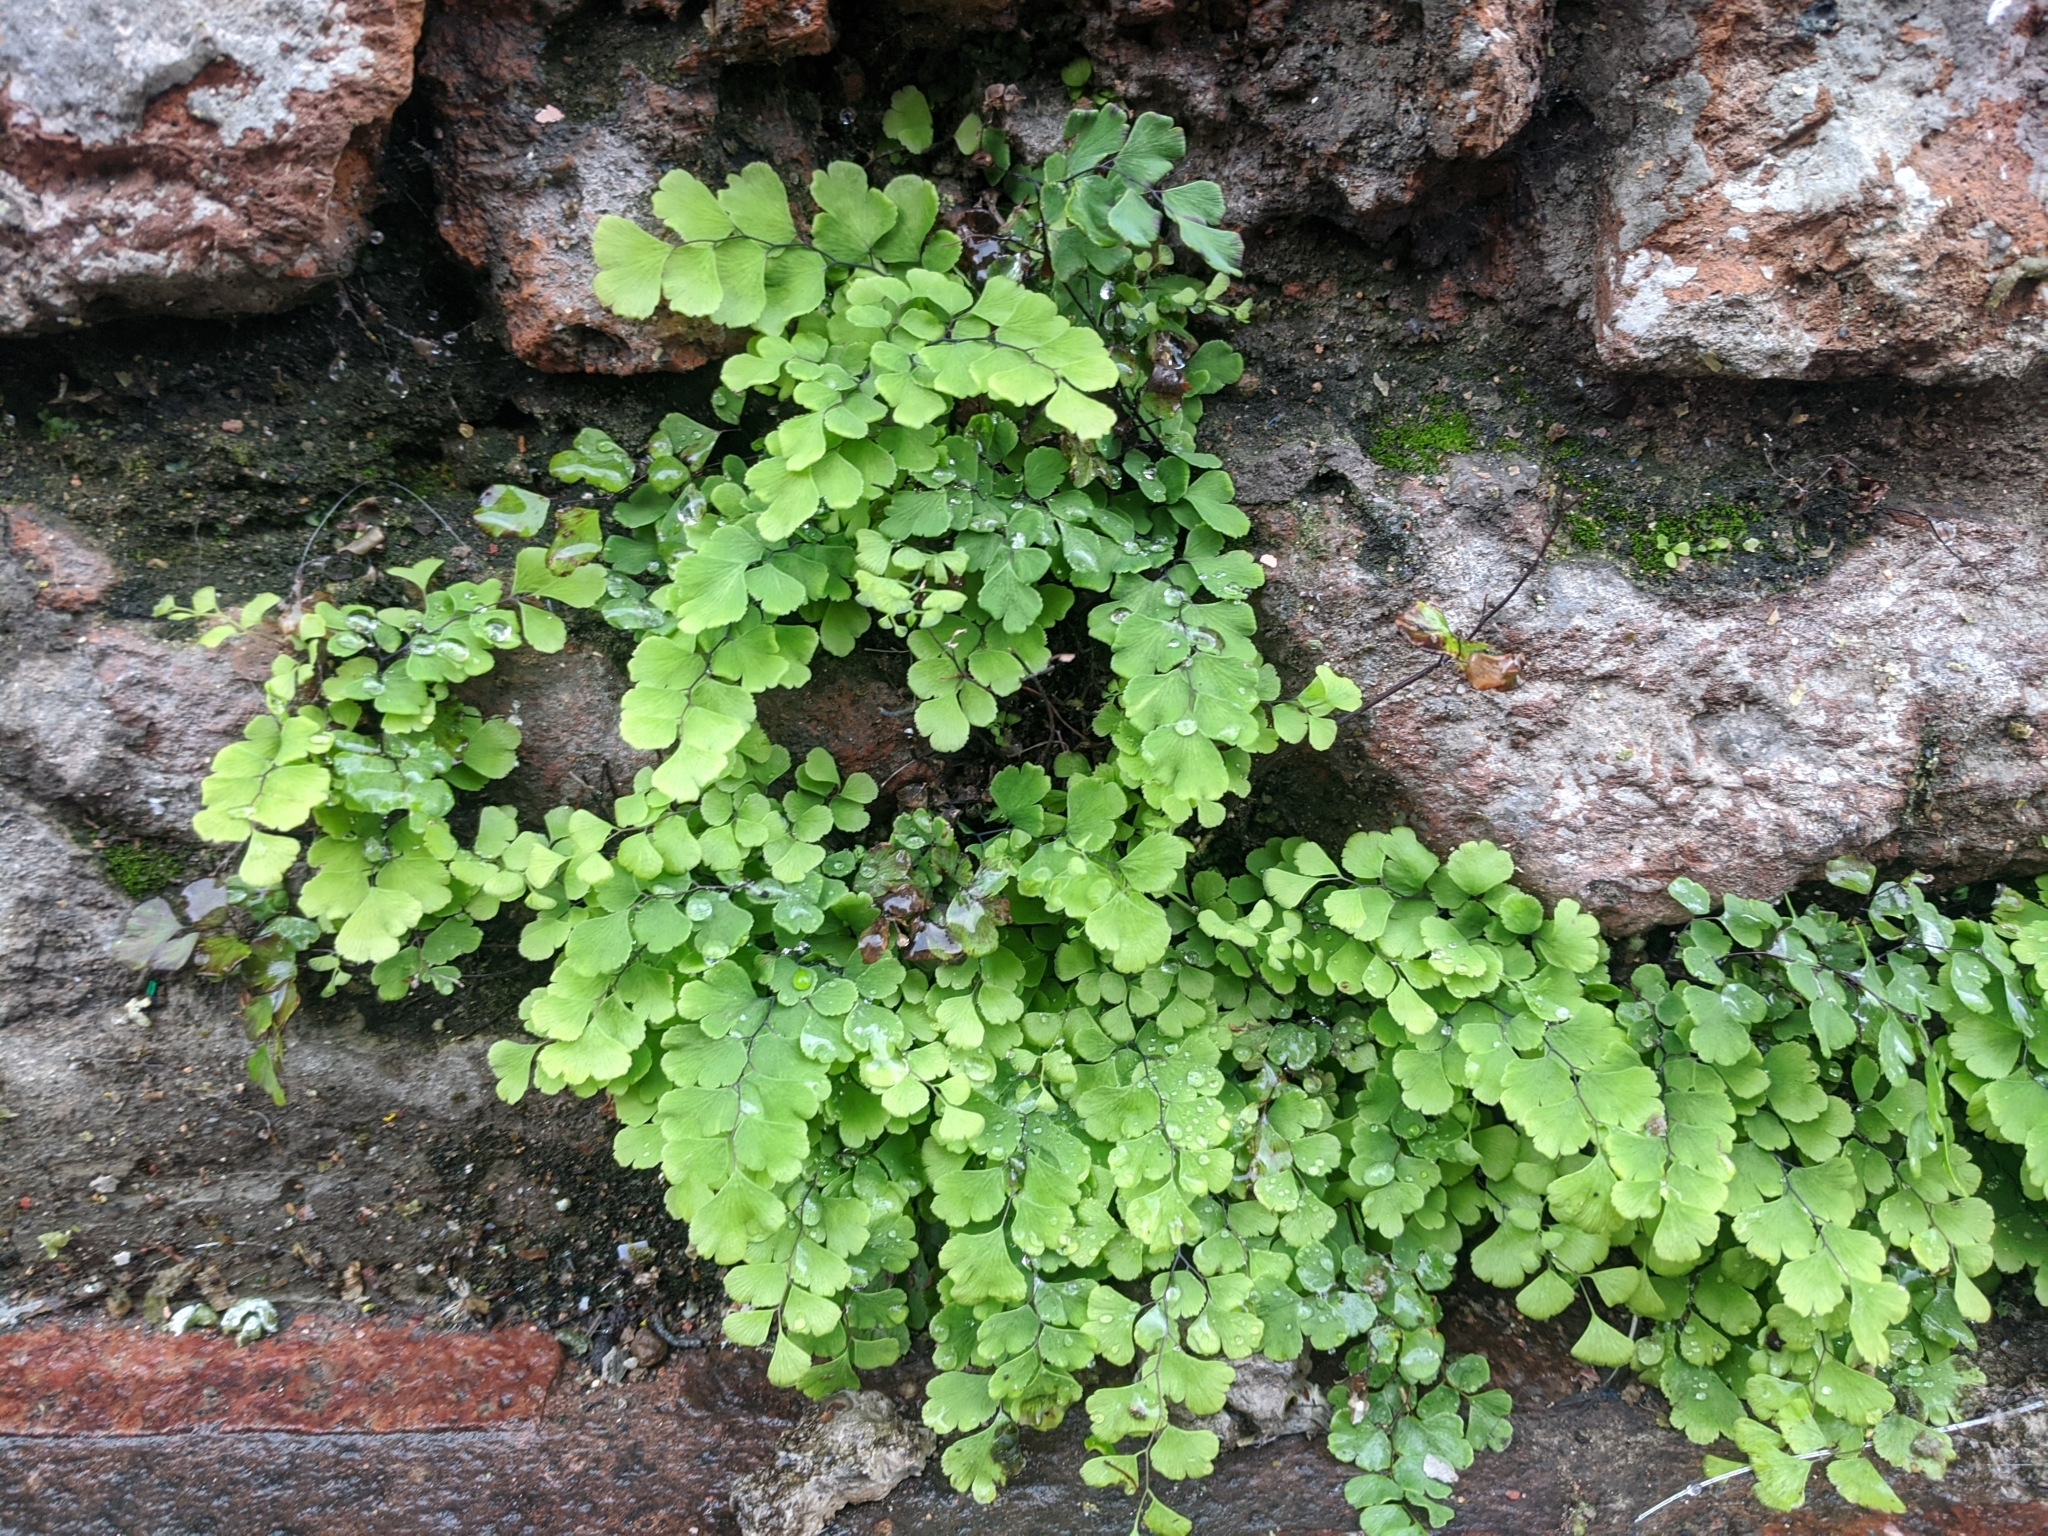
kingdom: Plantae
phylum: Tracheophyta
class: Polypodiopsida
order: Polypodiales
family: Pteridaceae
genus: Adiantum
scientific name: Adiantum capillus-veneris
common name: Maidenhair fern
